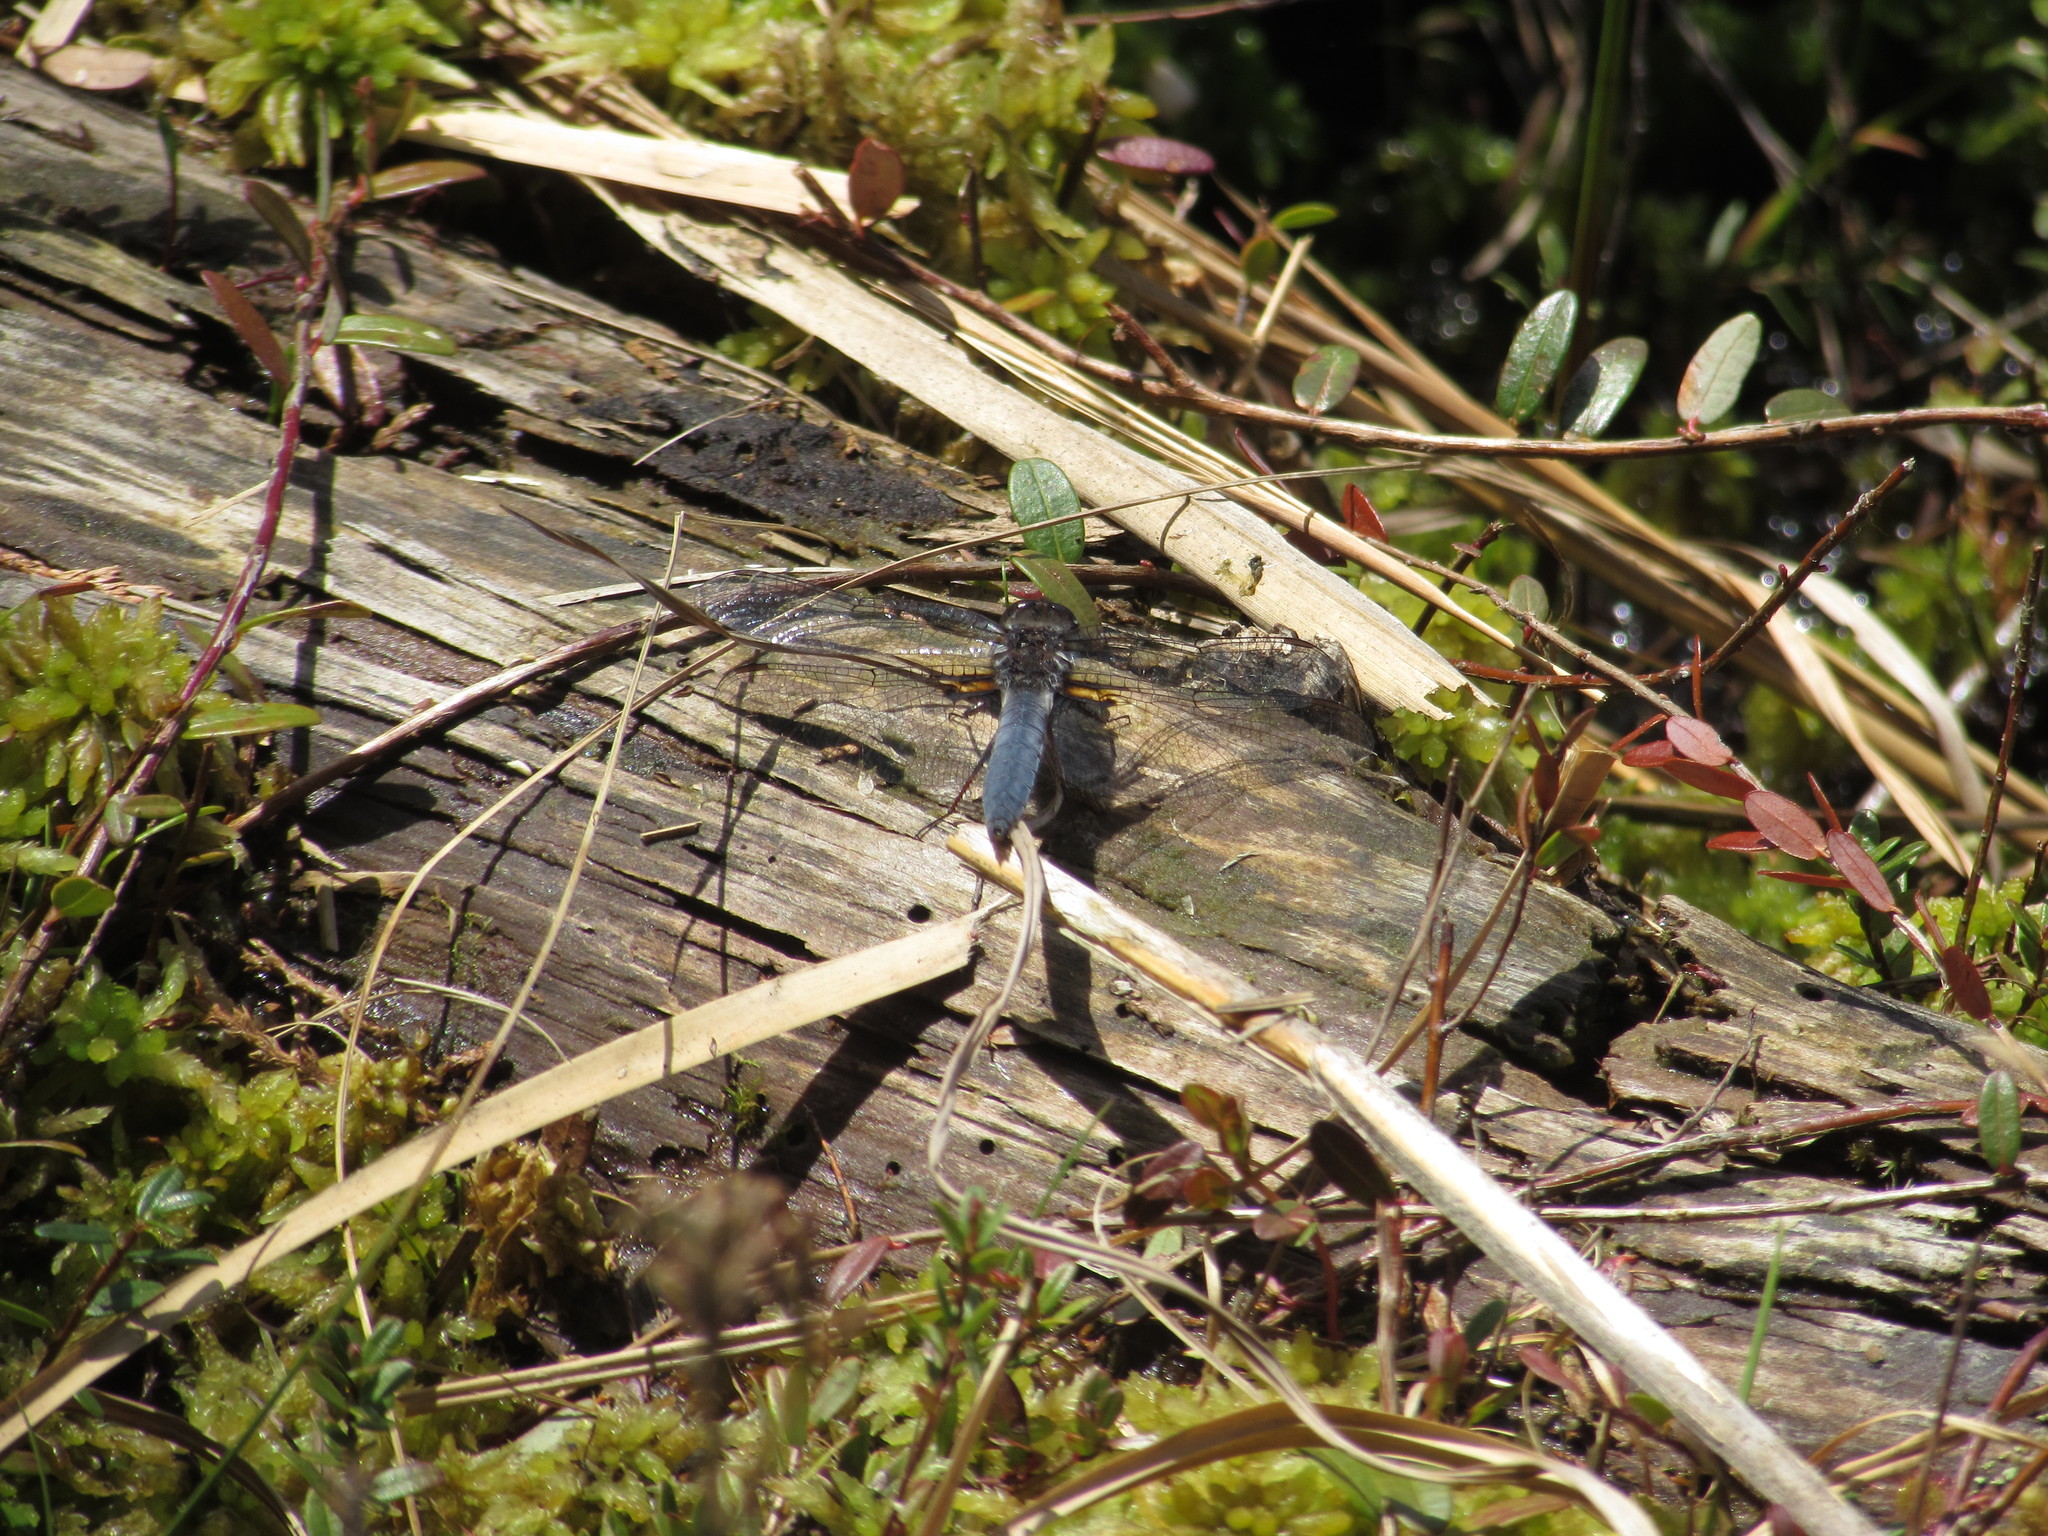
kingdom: Animalia
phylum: Arthropoda
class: Insecta
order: Odonata
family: Libellulidae
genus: Ladona
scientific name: Ladona deplanata
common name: Blue corporal
